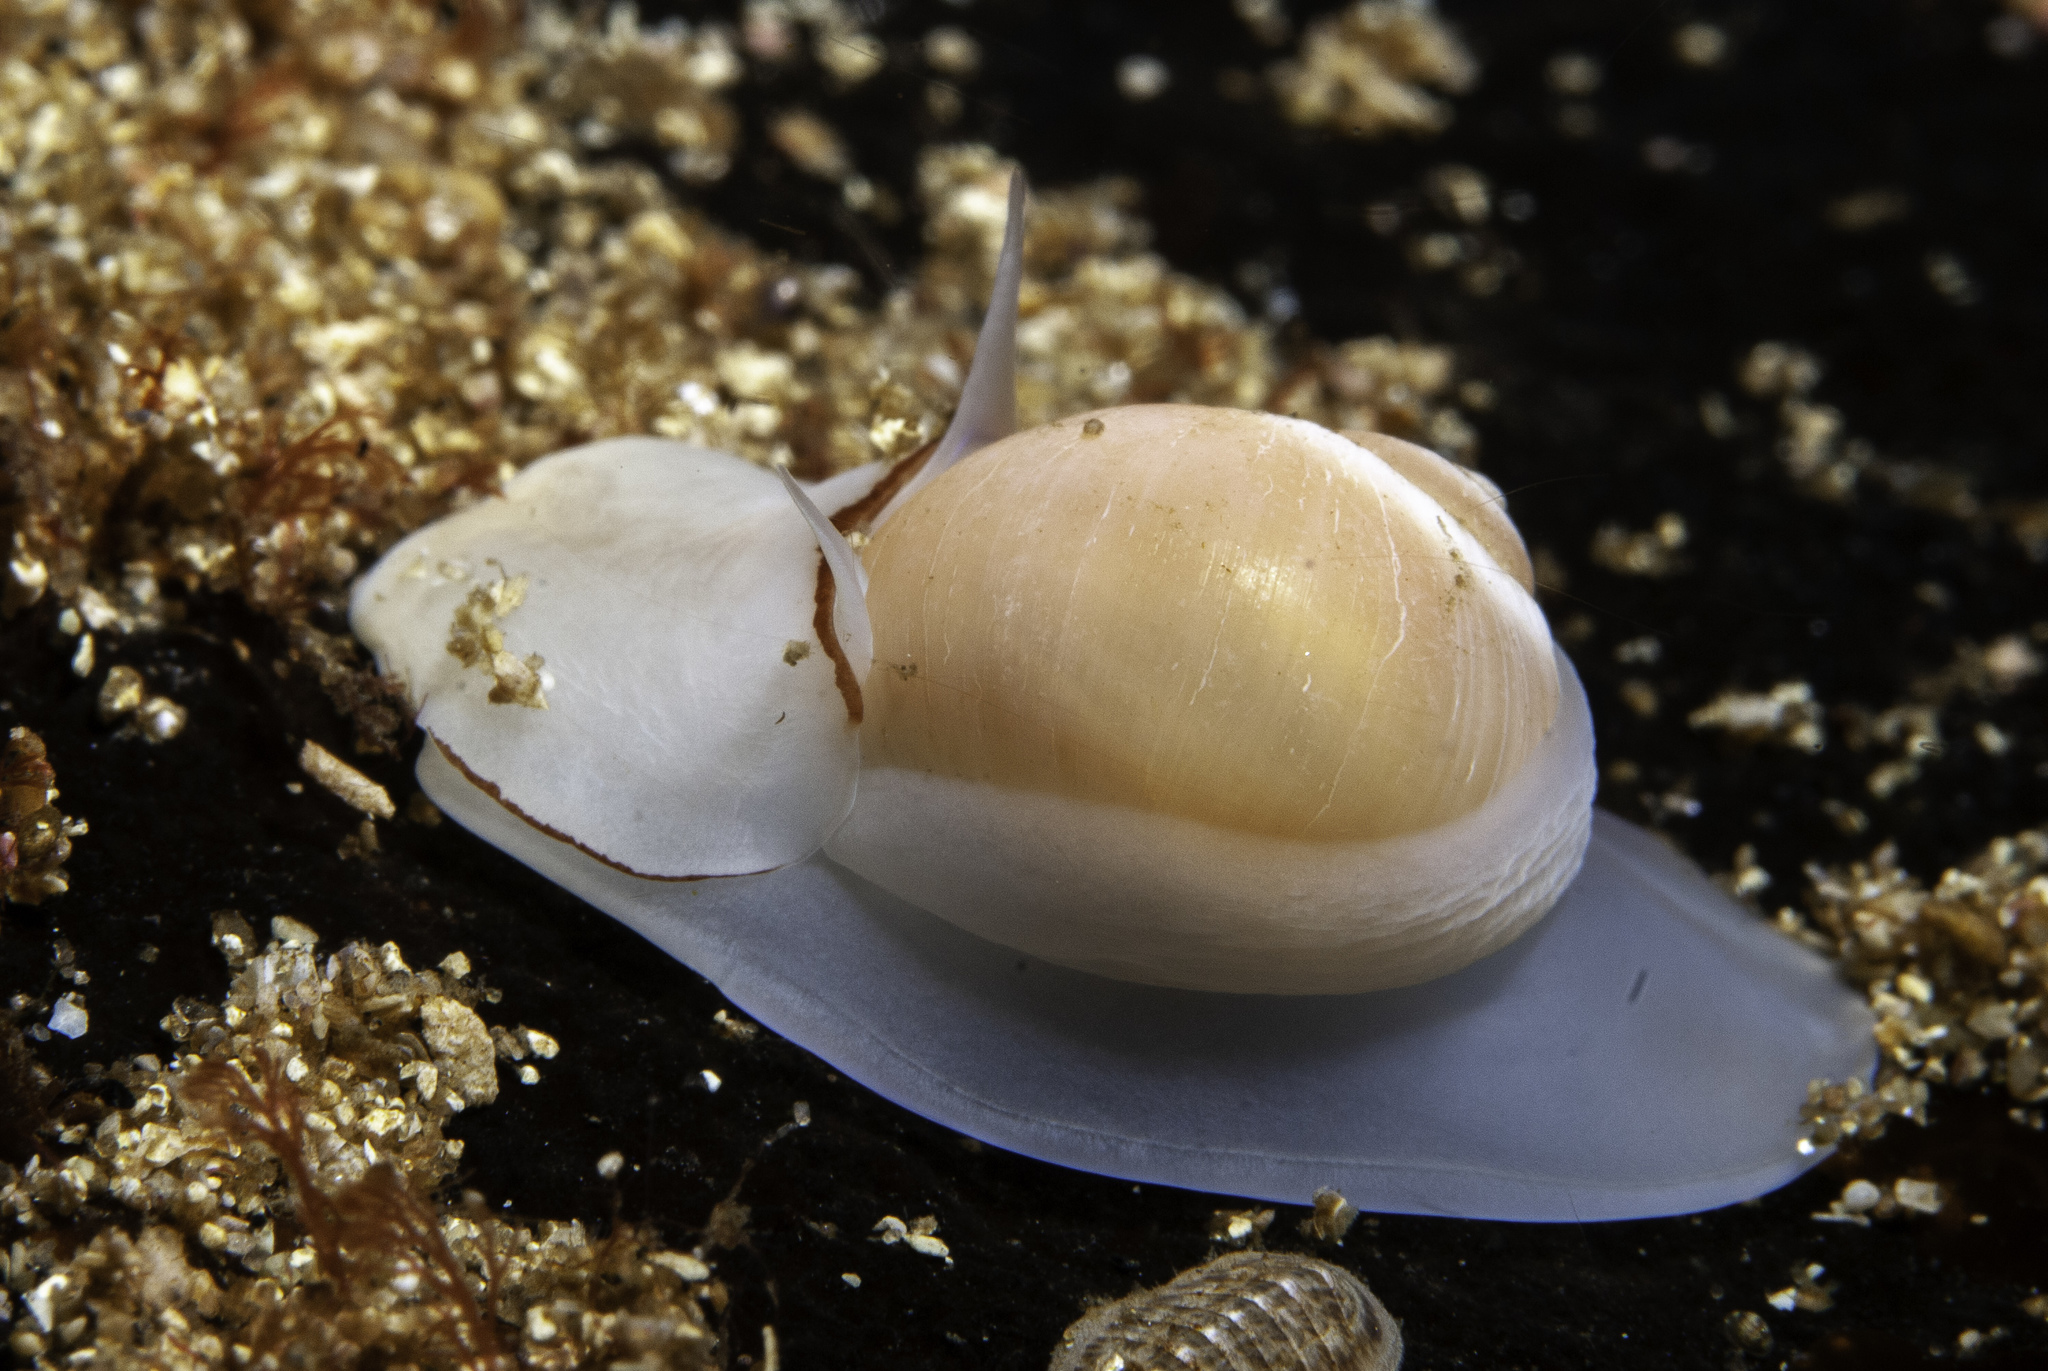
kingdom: Animalia
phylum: Mollusca
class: Gastropoda
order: Littorinimorpha
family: Naticidae
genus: Euspira
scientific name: Euspira montagui
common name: Unspotted moonsnail
